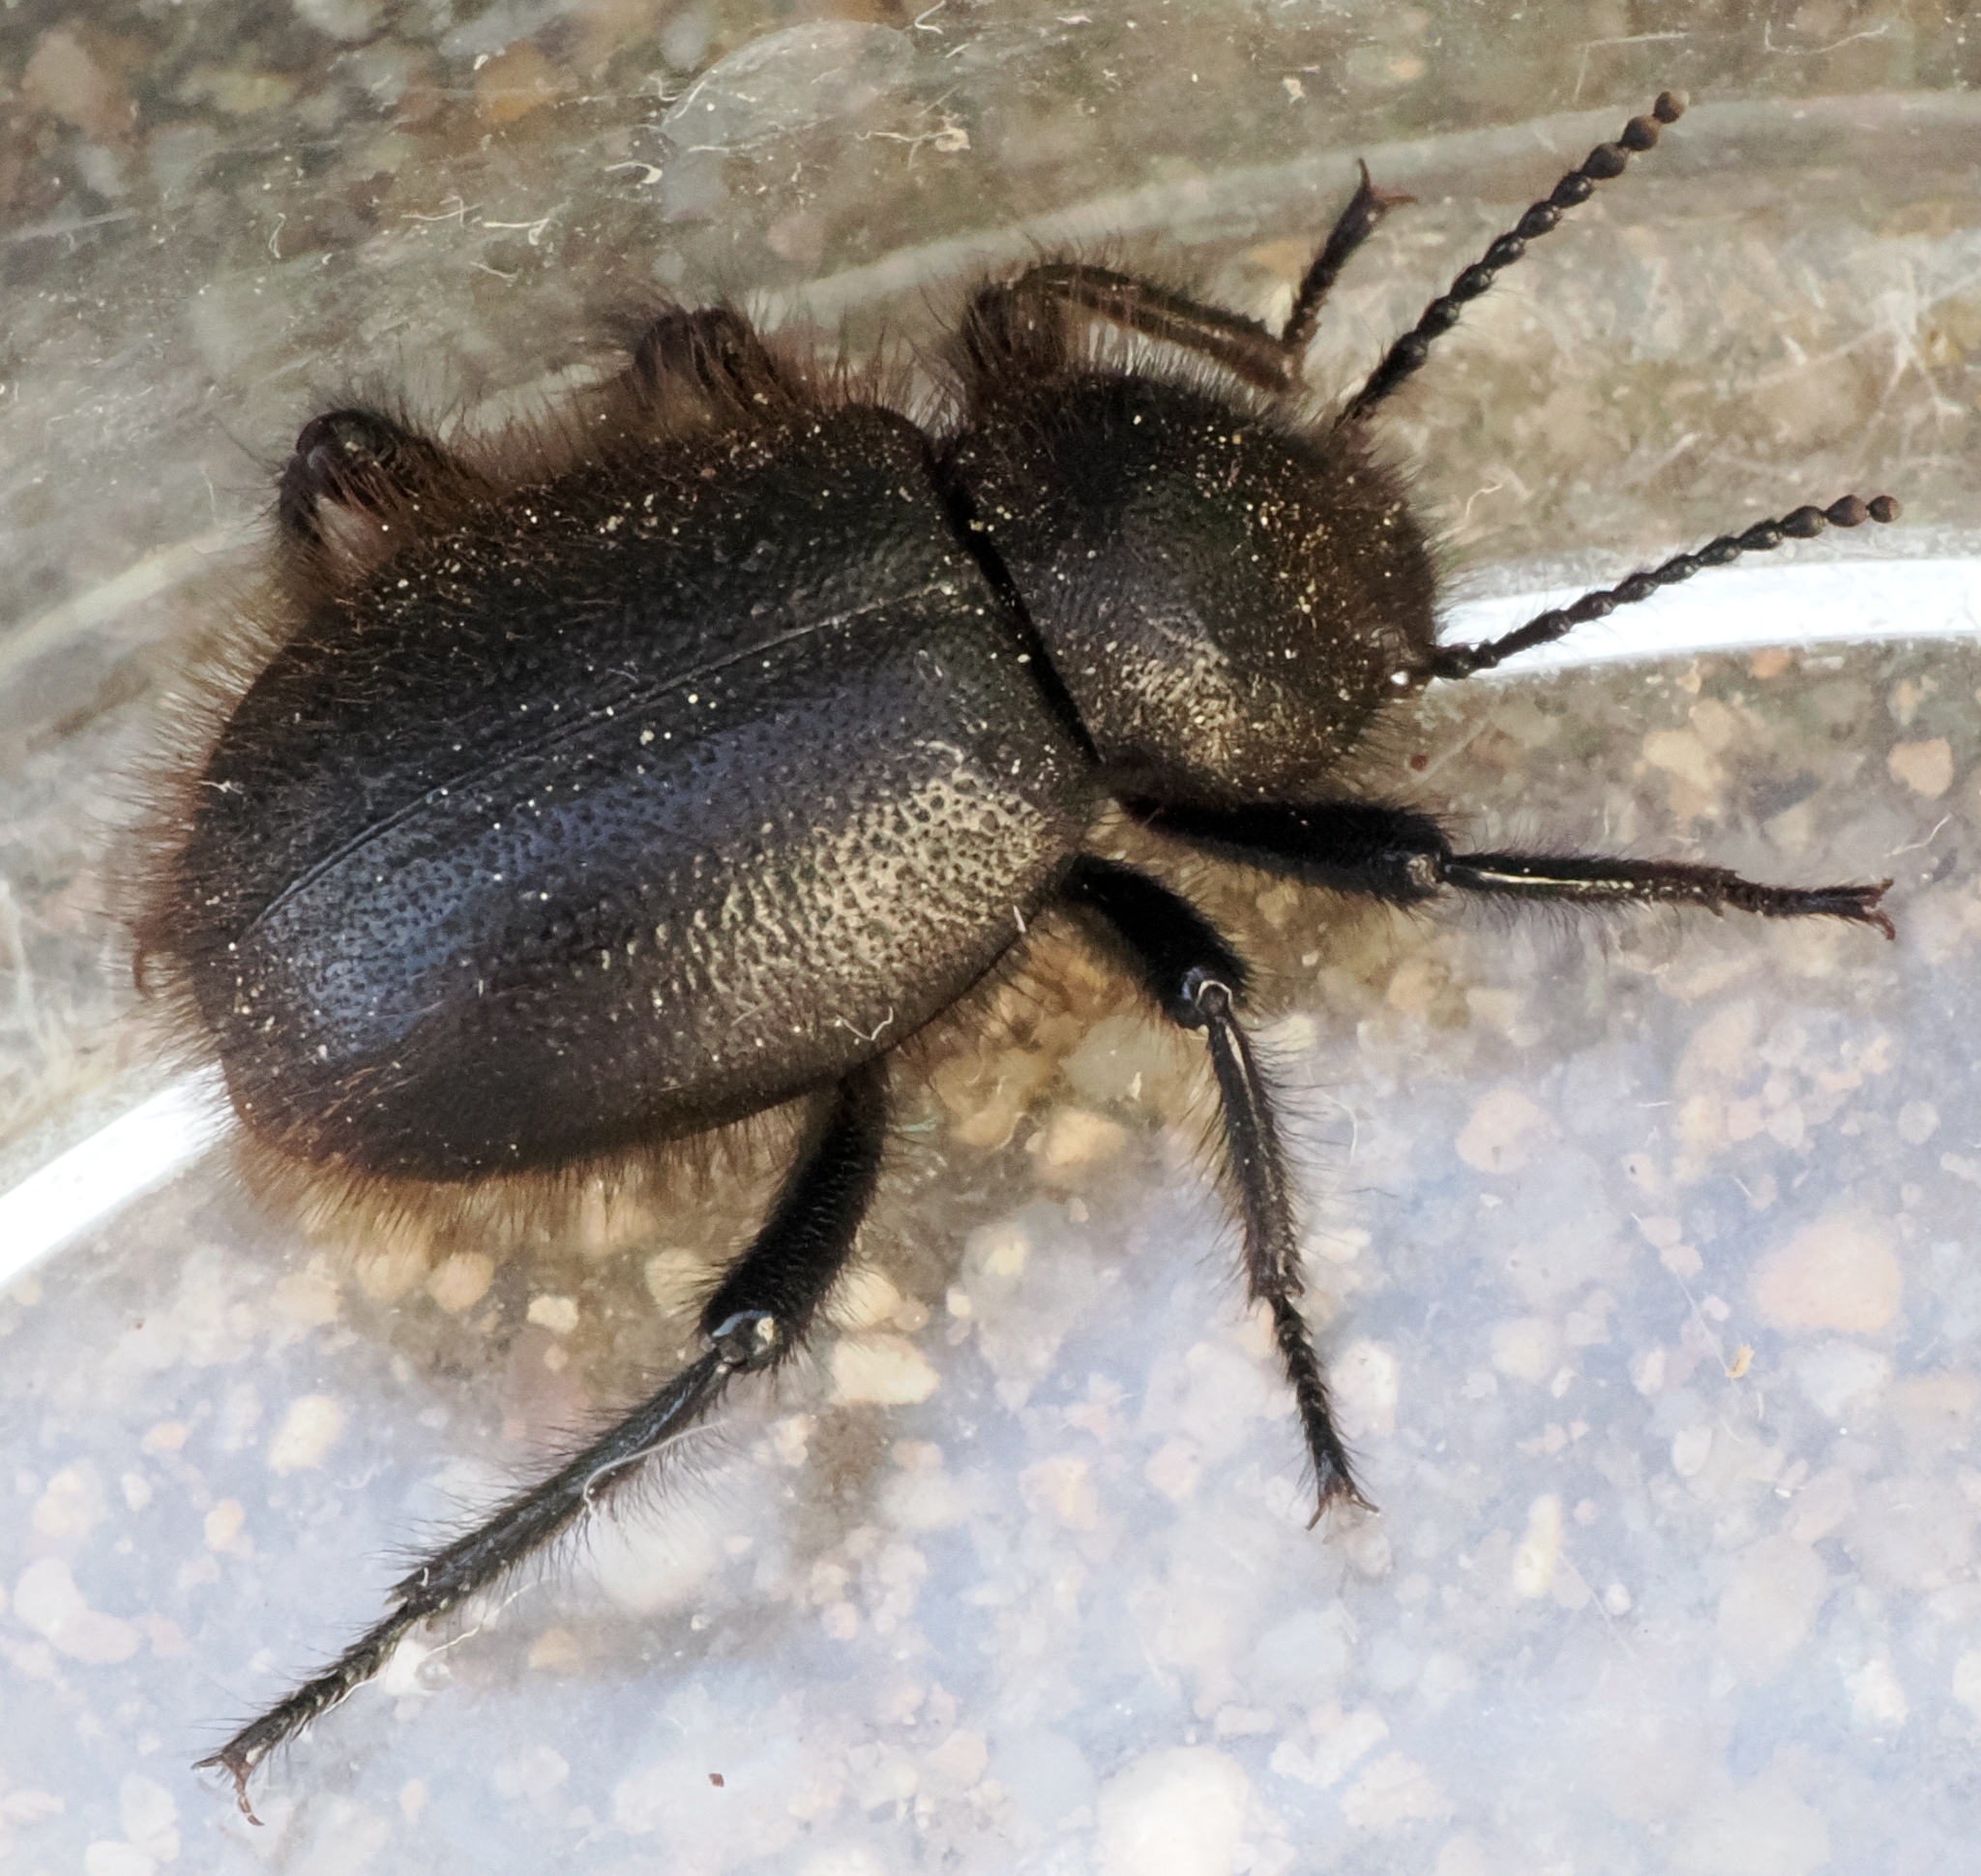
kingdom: Animalia
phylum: Arthropoda
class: Insecta
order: Coleoptera
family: Tenebrionidae
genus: Eleodes
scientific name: Eleodes osculans
